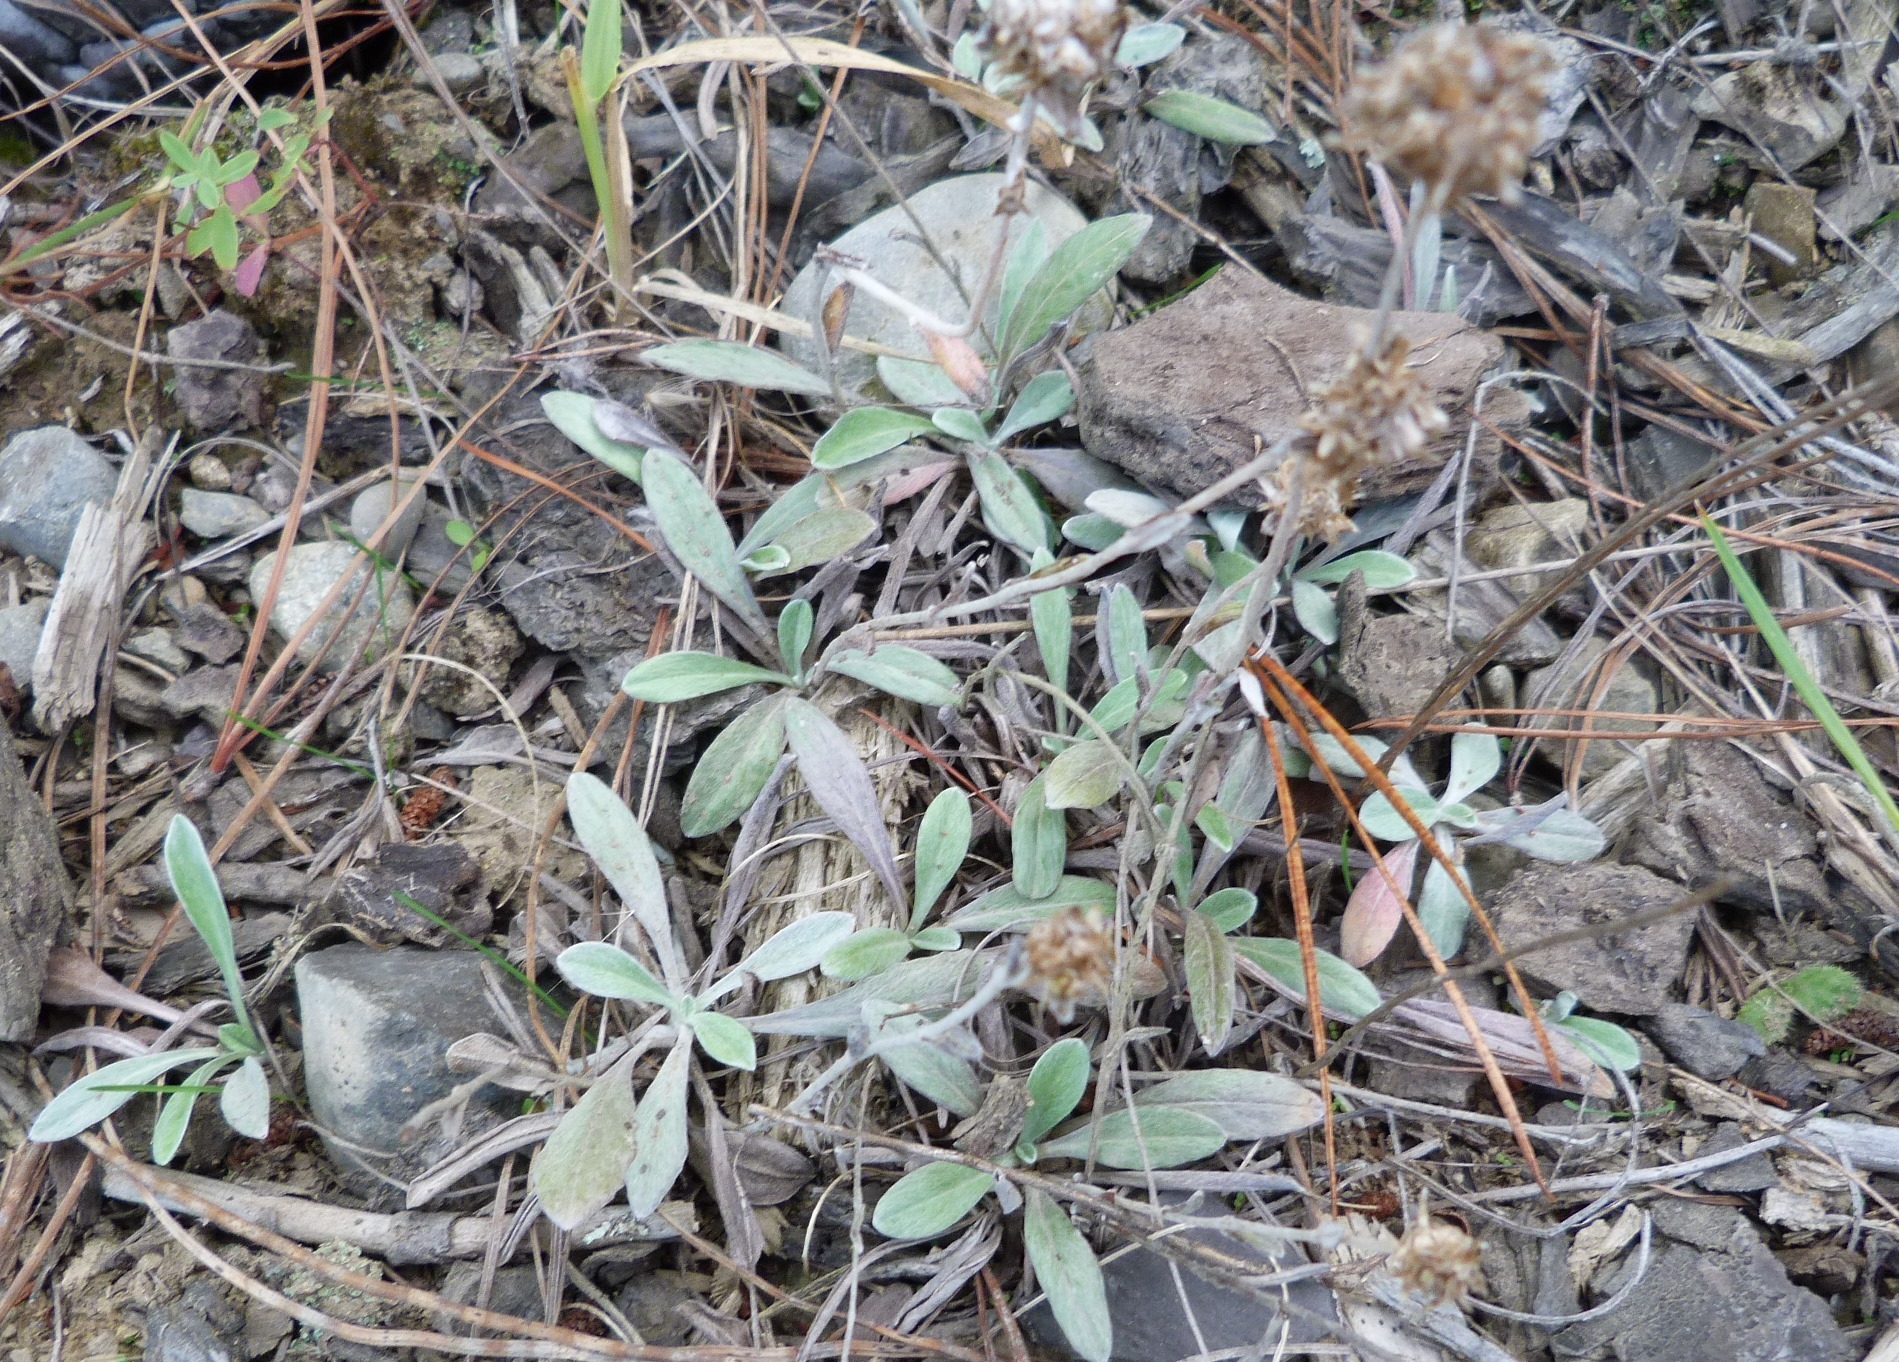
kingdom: Plantae
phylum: Tracheophyta
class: Magnoliopsida
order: Asterales
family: Asteraceae
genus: Euchiton
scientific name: Euchiton audax
